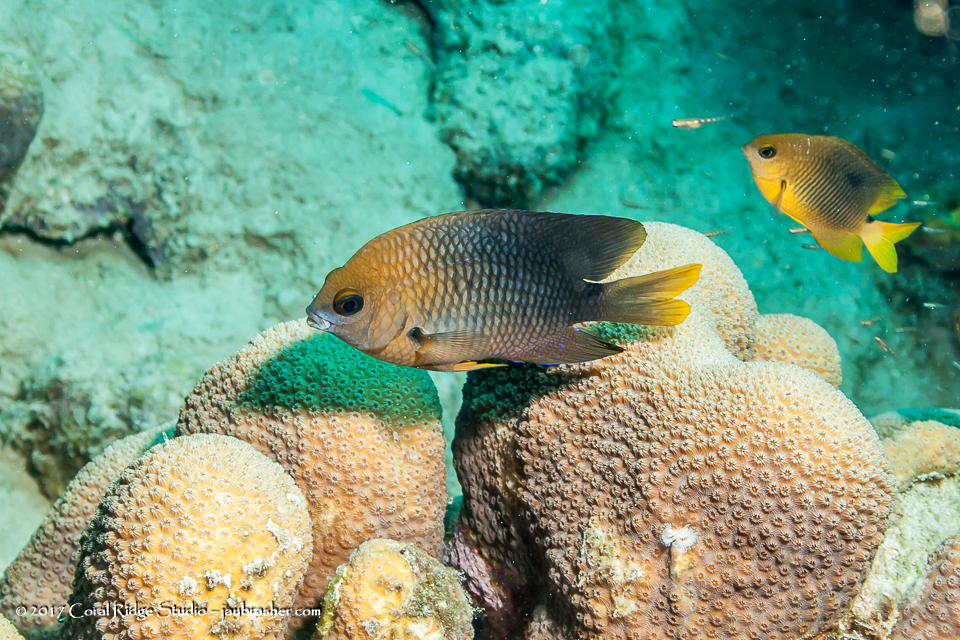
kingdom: Animalia
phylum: Chordata
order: Perciformes
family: Pomacentridae
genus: Stegastes
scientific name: Stegastes planifrons
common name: Threespot damselfish
